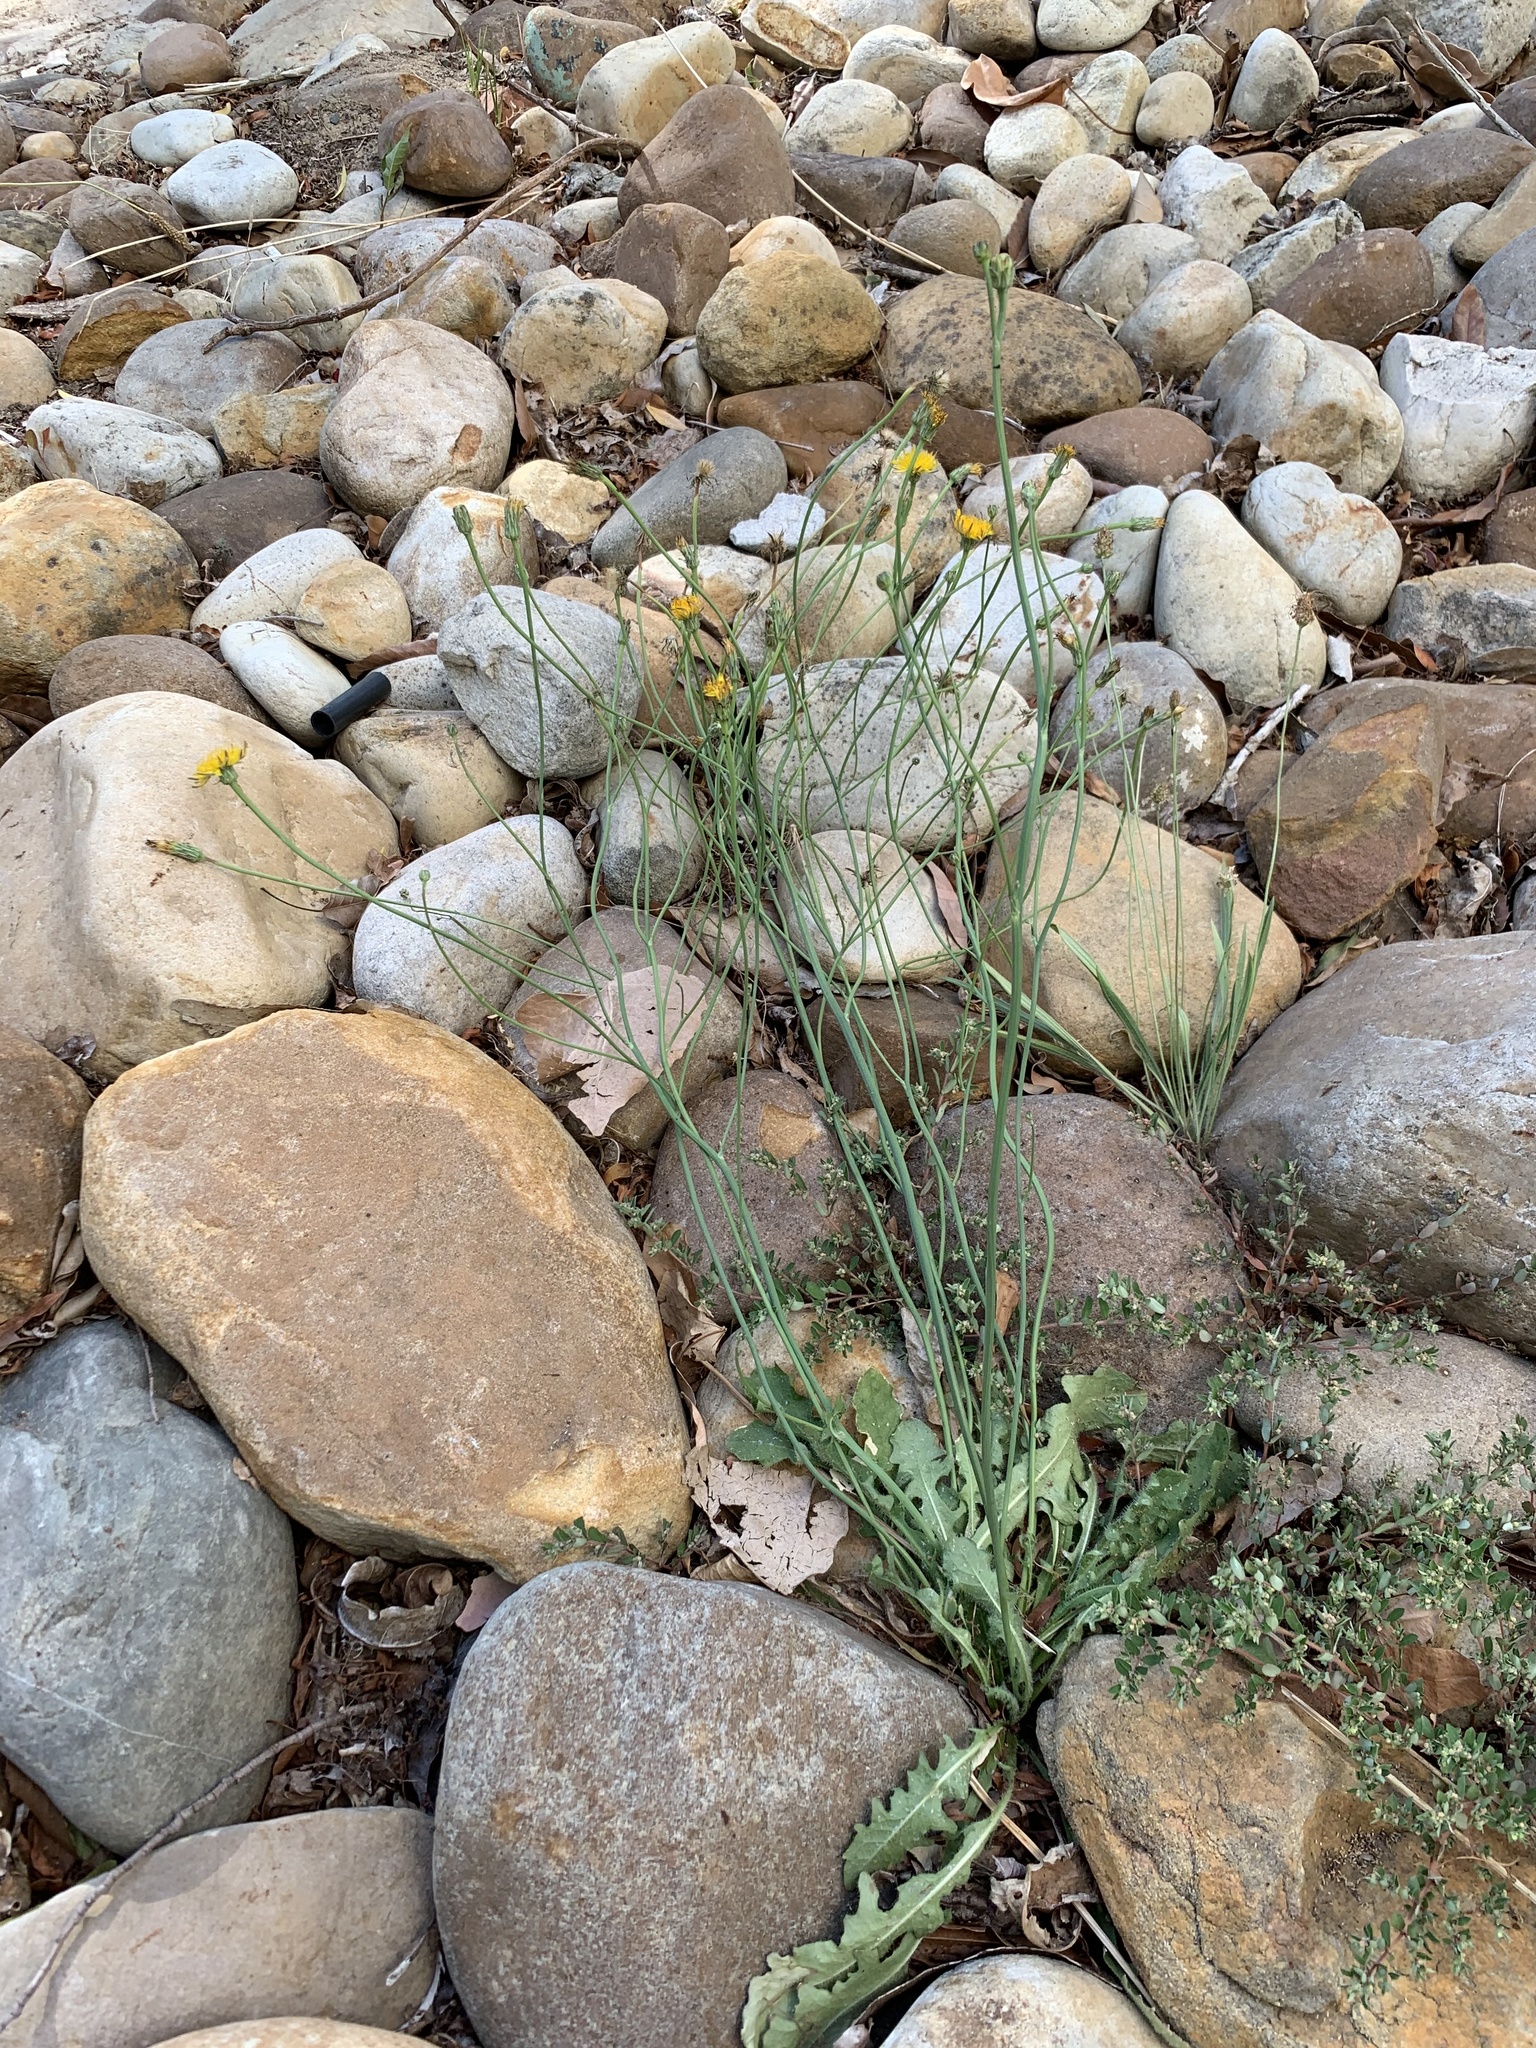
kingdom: Plantae
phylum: Tracheophyta
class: Magnoliopsida
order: Asterales
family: Asteraceae
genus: Hypochaeris
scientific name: Hypochaeris radicata
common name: Flatweed
